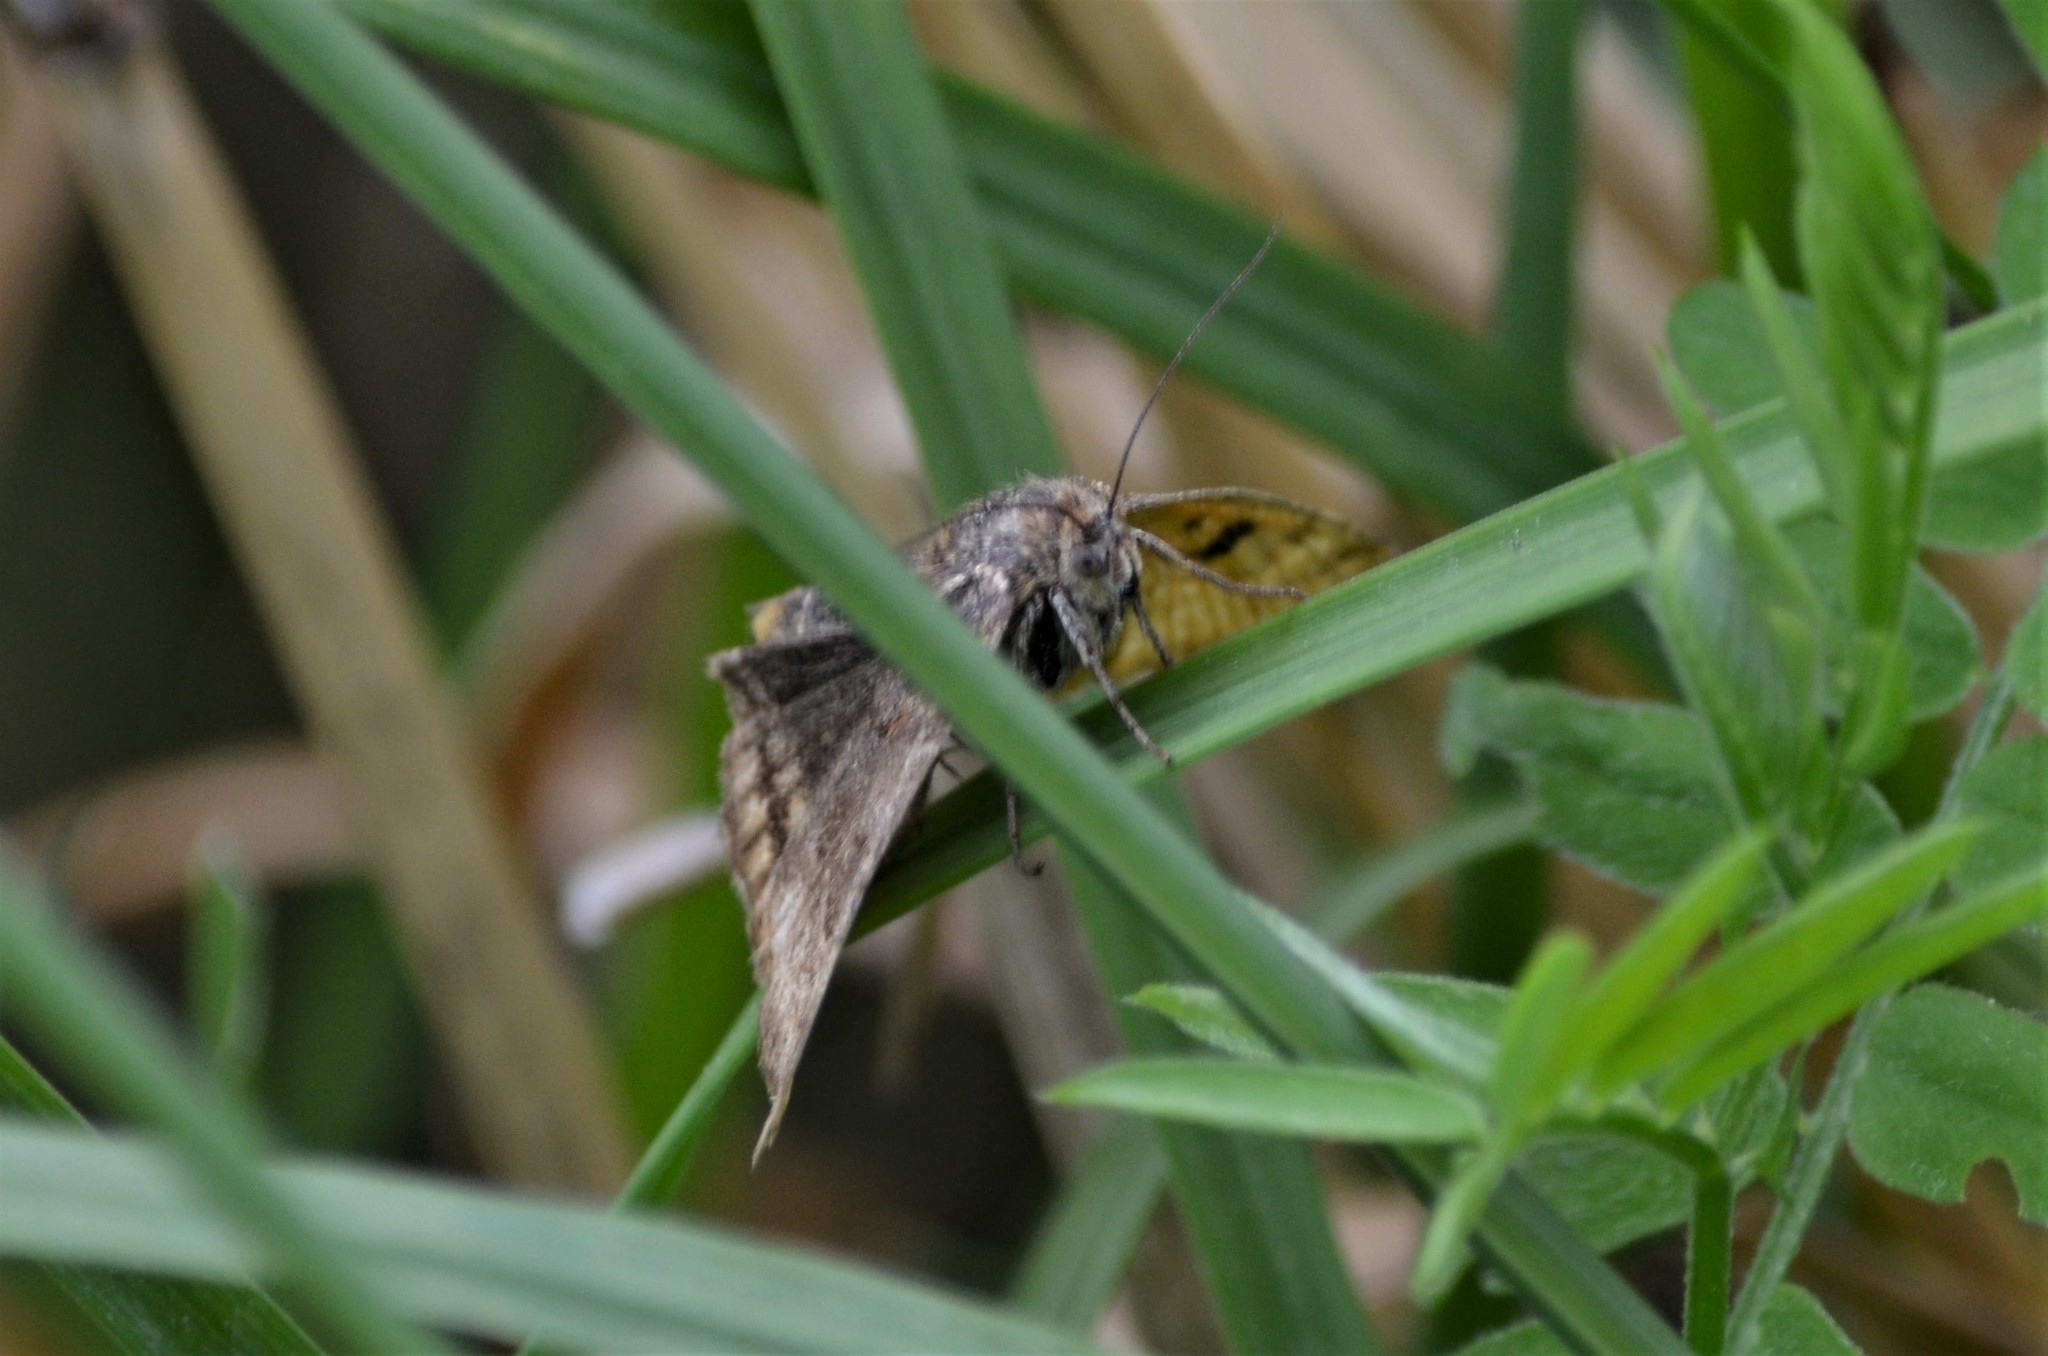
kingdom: Animalia
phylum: Arthropoda
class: Insecta
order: Lepidoptera
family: Erebidae
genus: Euclidia
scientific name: Euclidia glyphica
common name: Burnet companion
